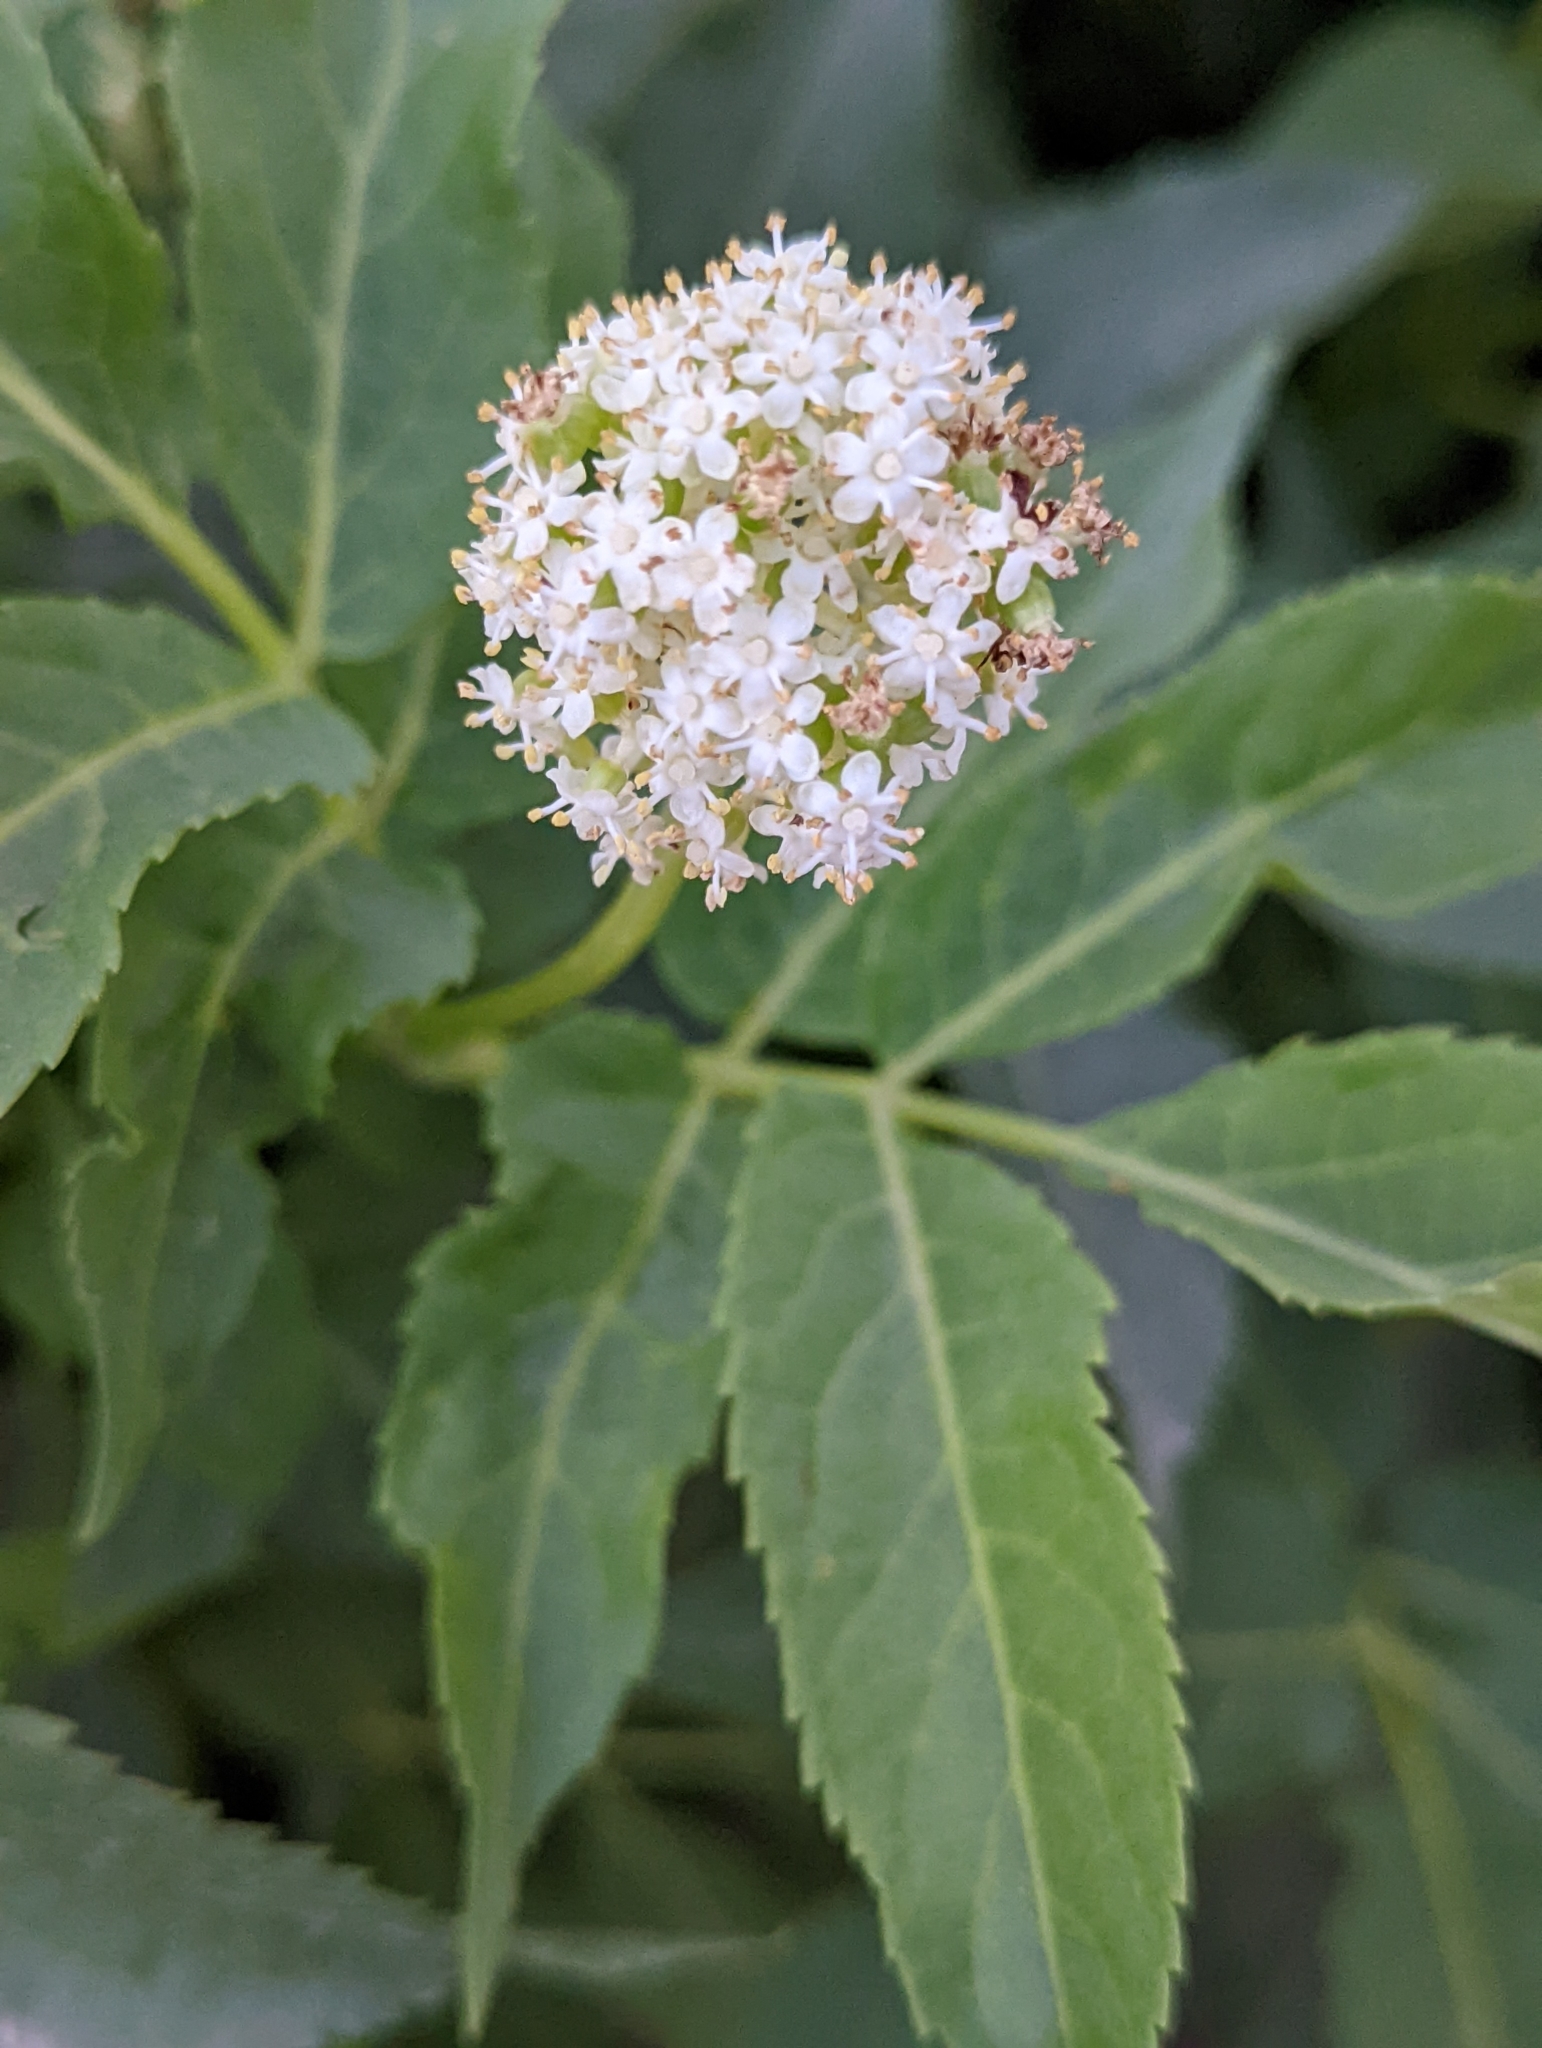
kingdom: Plantae
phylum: Tracheophyta
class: Magnoliopsida
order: Dipsacales
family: Viburnaceae
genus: Sambucus
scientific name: Sambucus racemosa
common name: Red-berried elder
